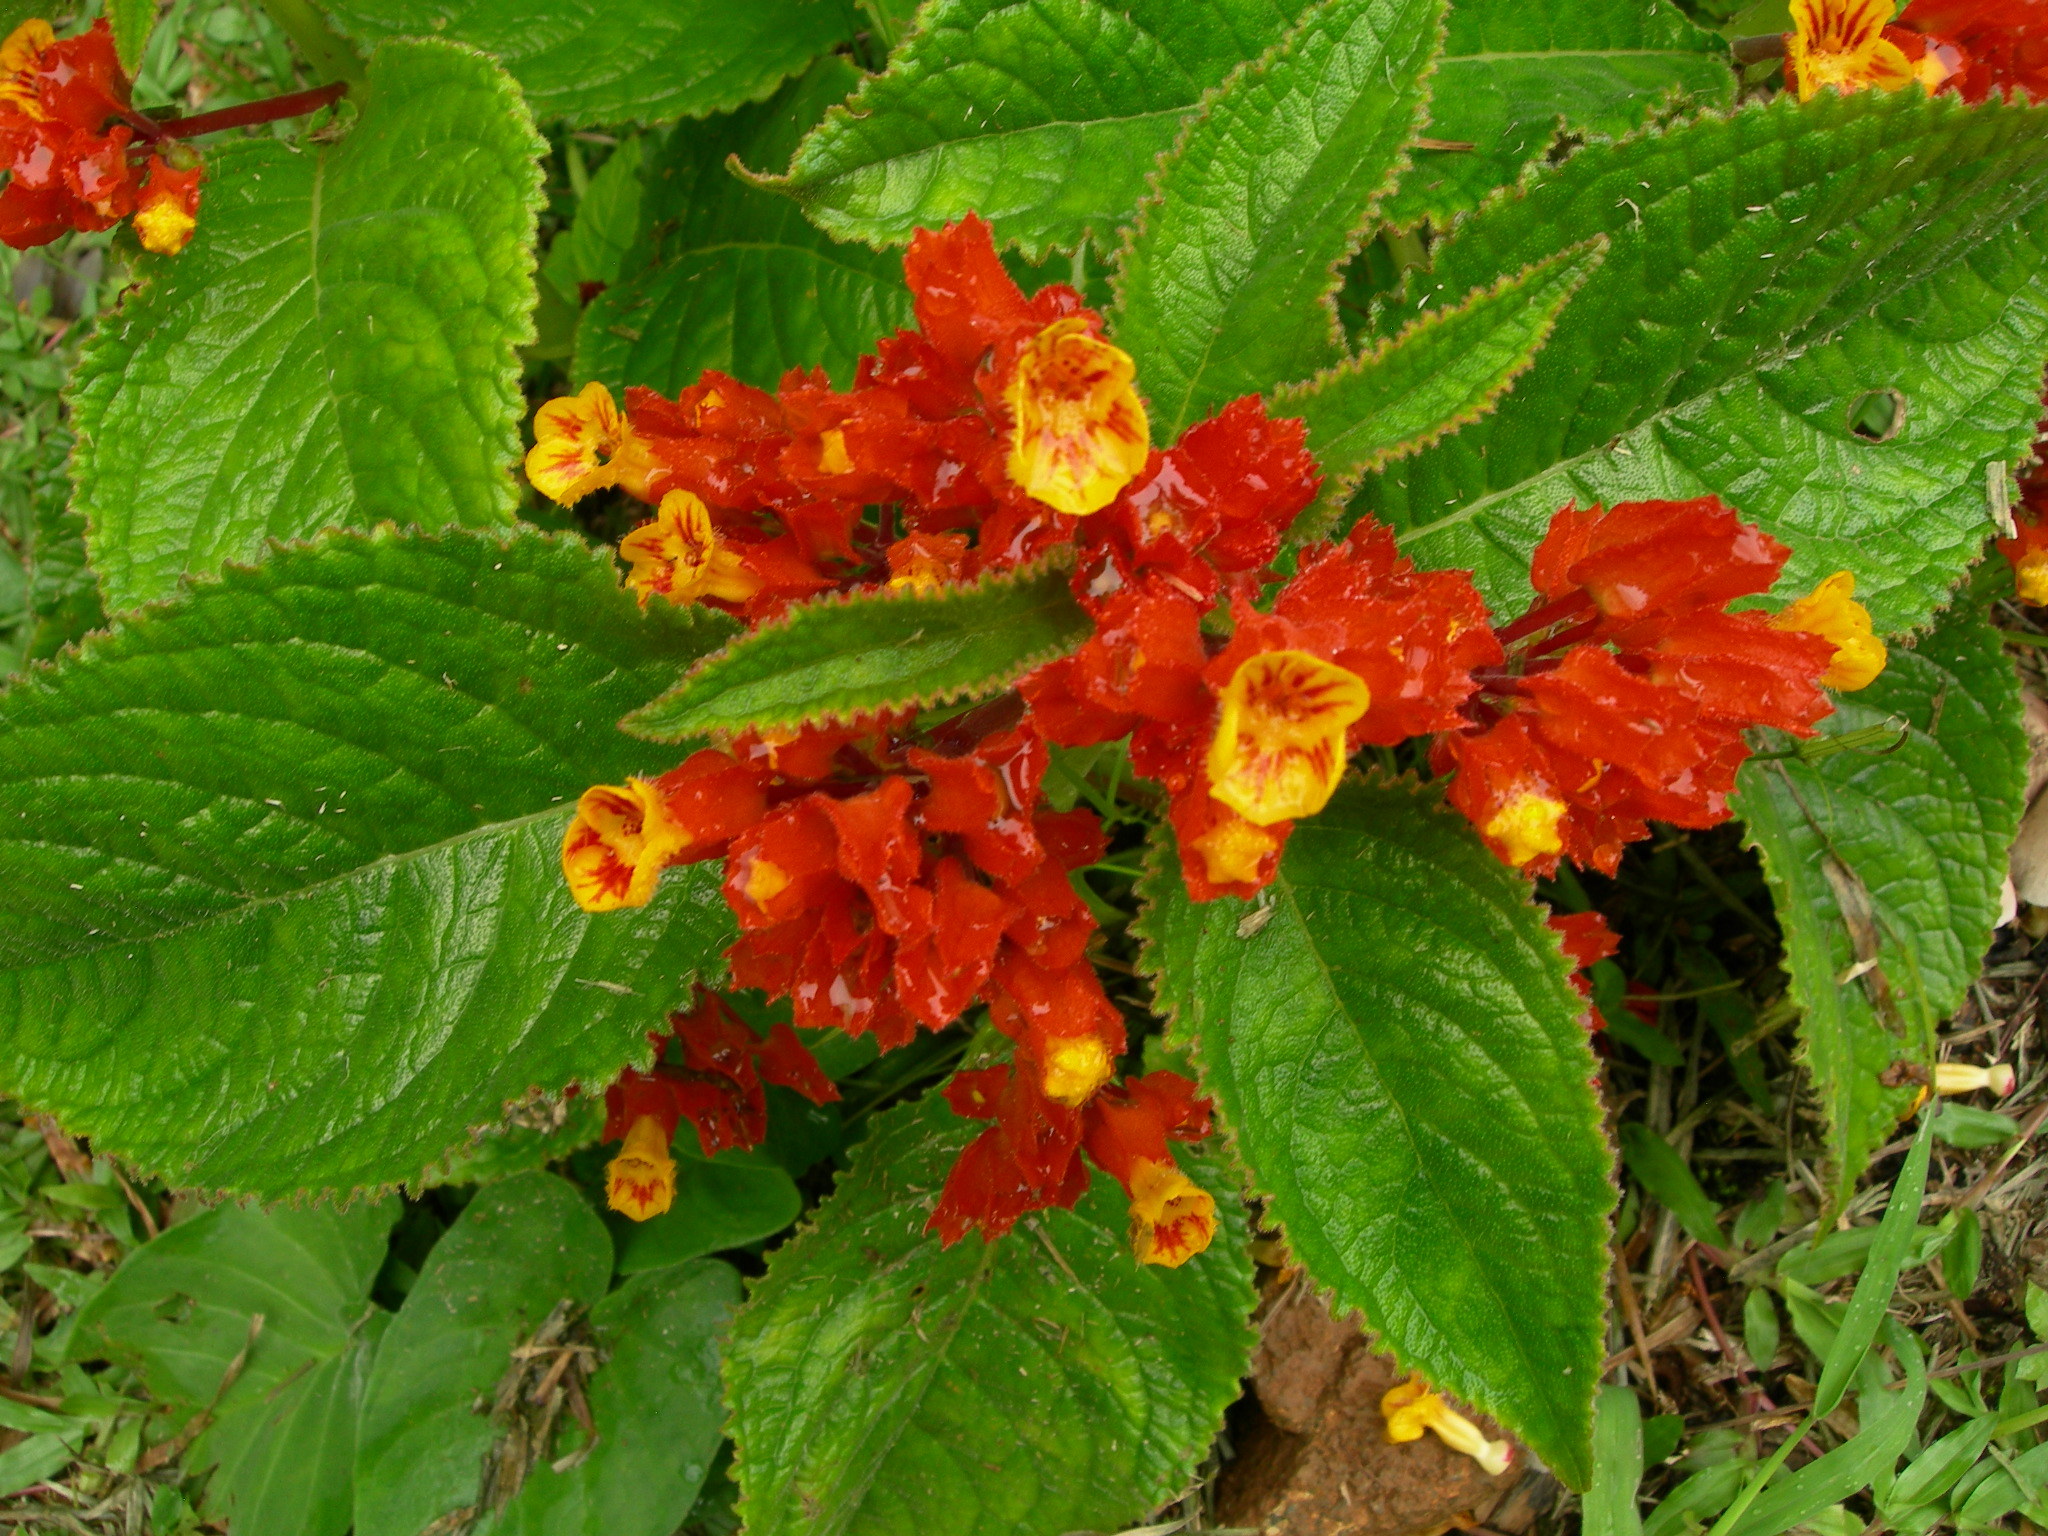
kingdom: Plantae
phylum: Tracheophyta
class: Magnoliopsida
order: Lamiales
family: Gesneriaceae
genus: Chrysothemis
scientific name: Chrysothemis pulchella
